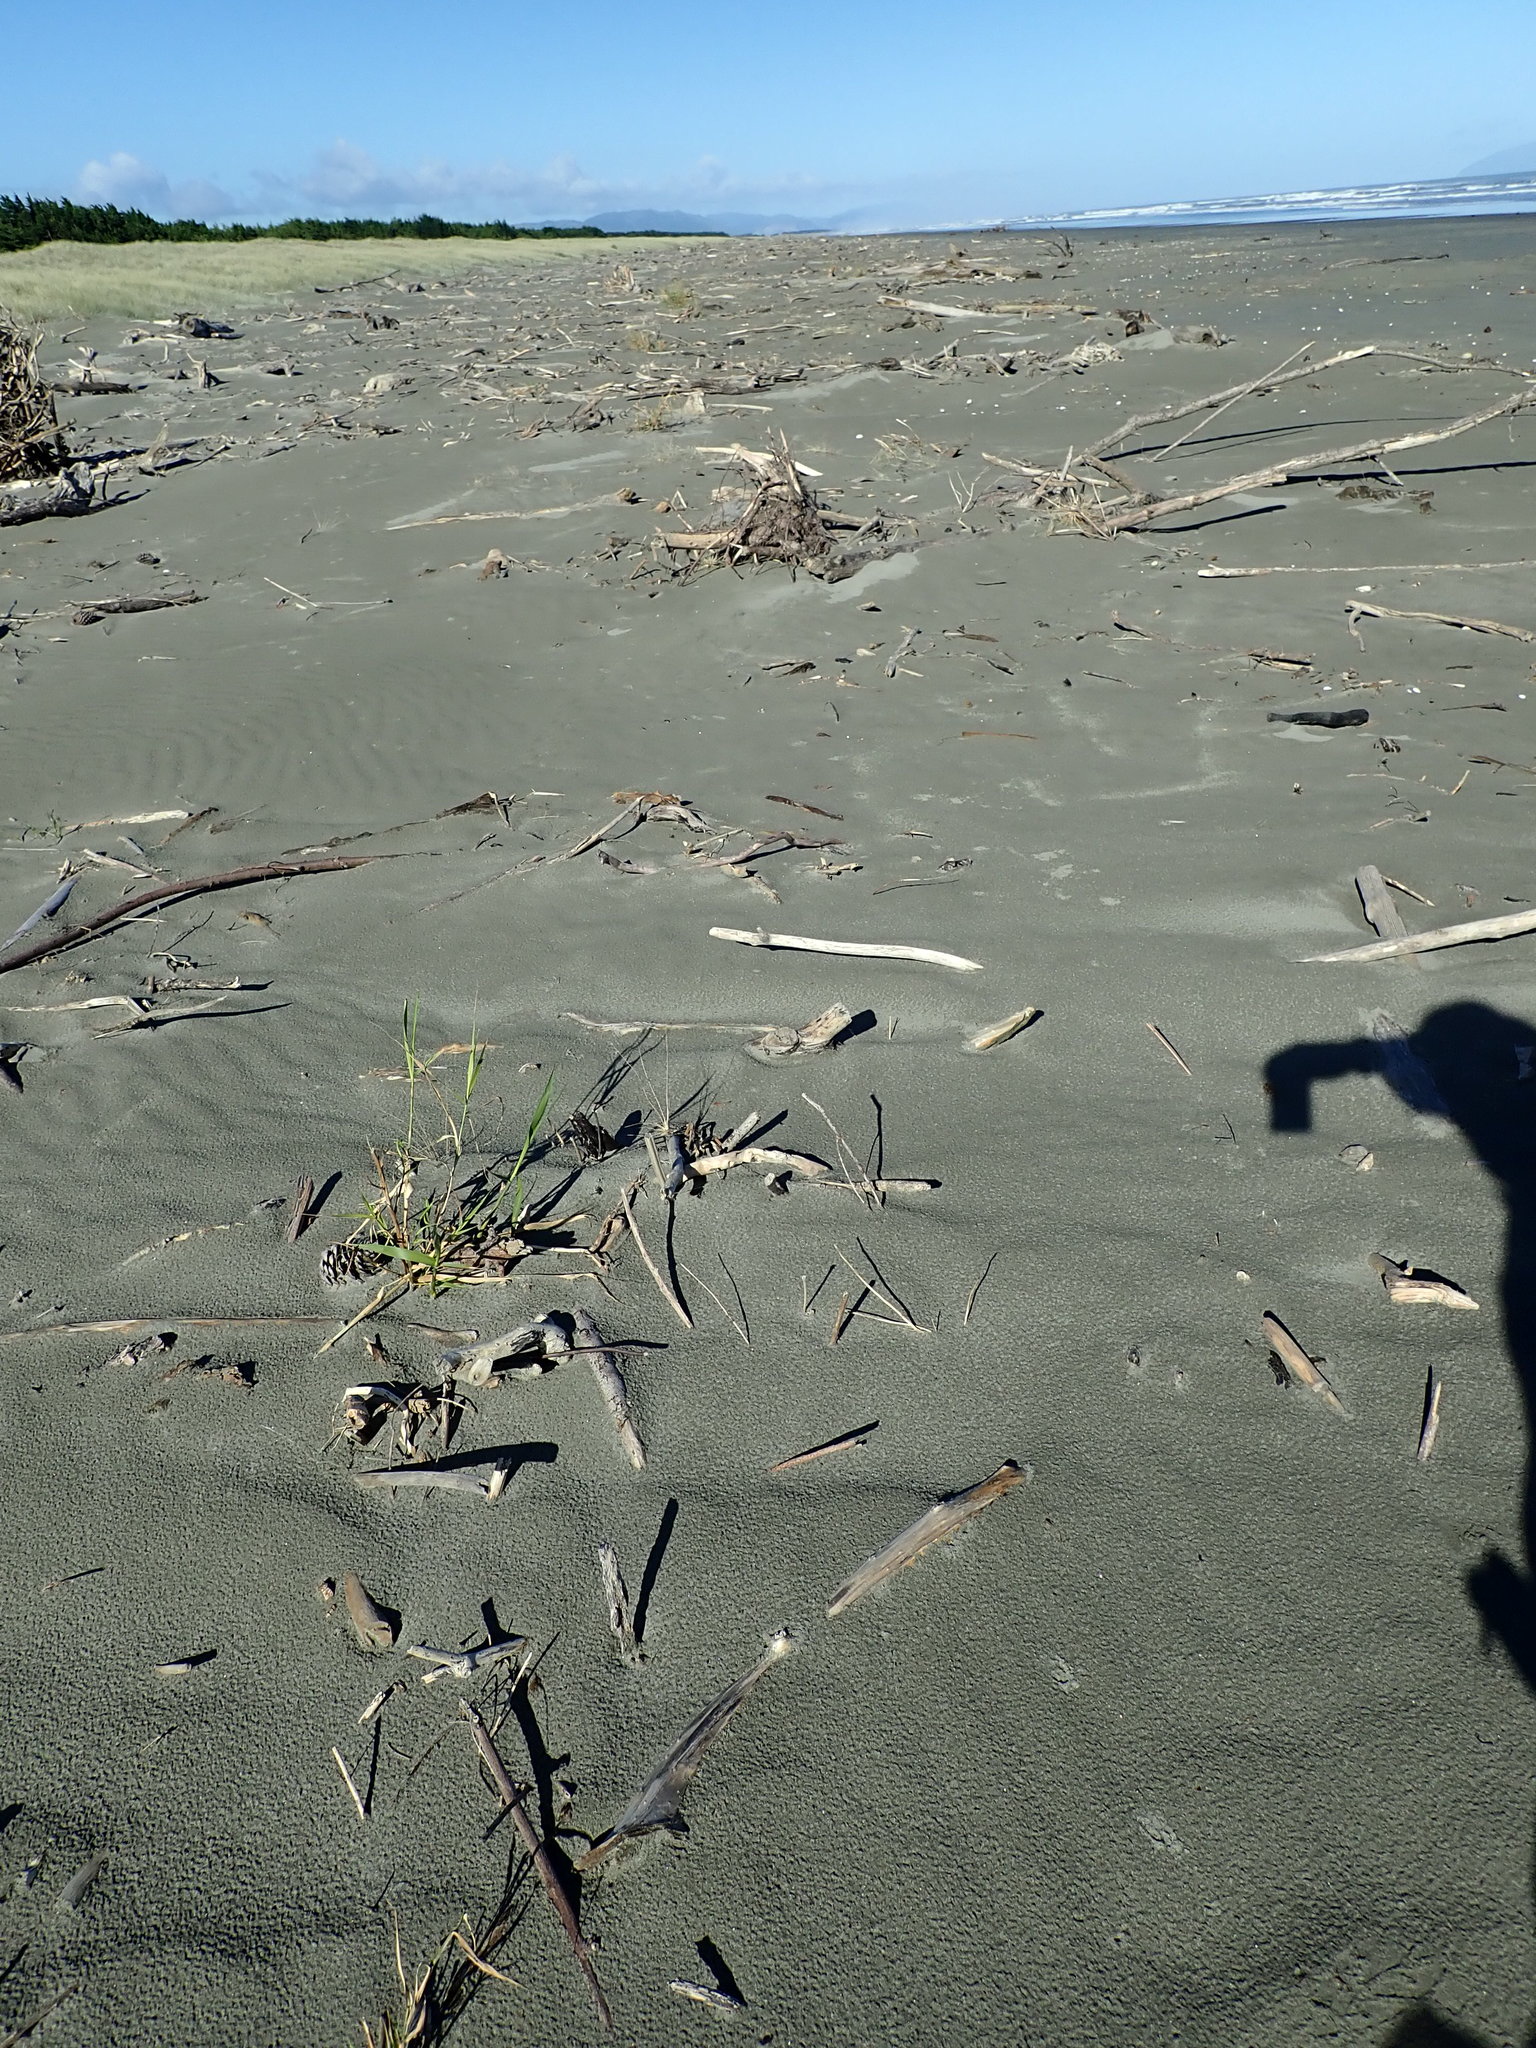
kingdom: Plantae
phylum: Tracheophyta
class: Liliopsida
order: Poales
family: Poaceae
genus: Phragmites
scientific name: Phragmites karka
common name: Tropical reed
